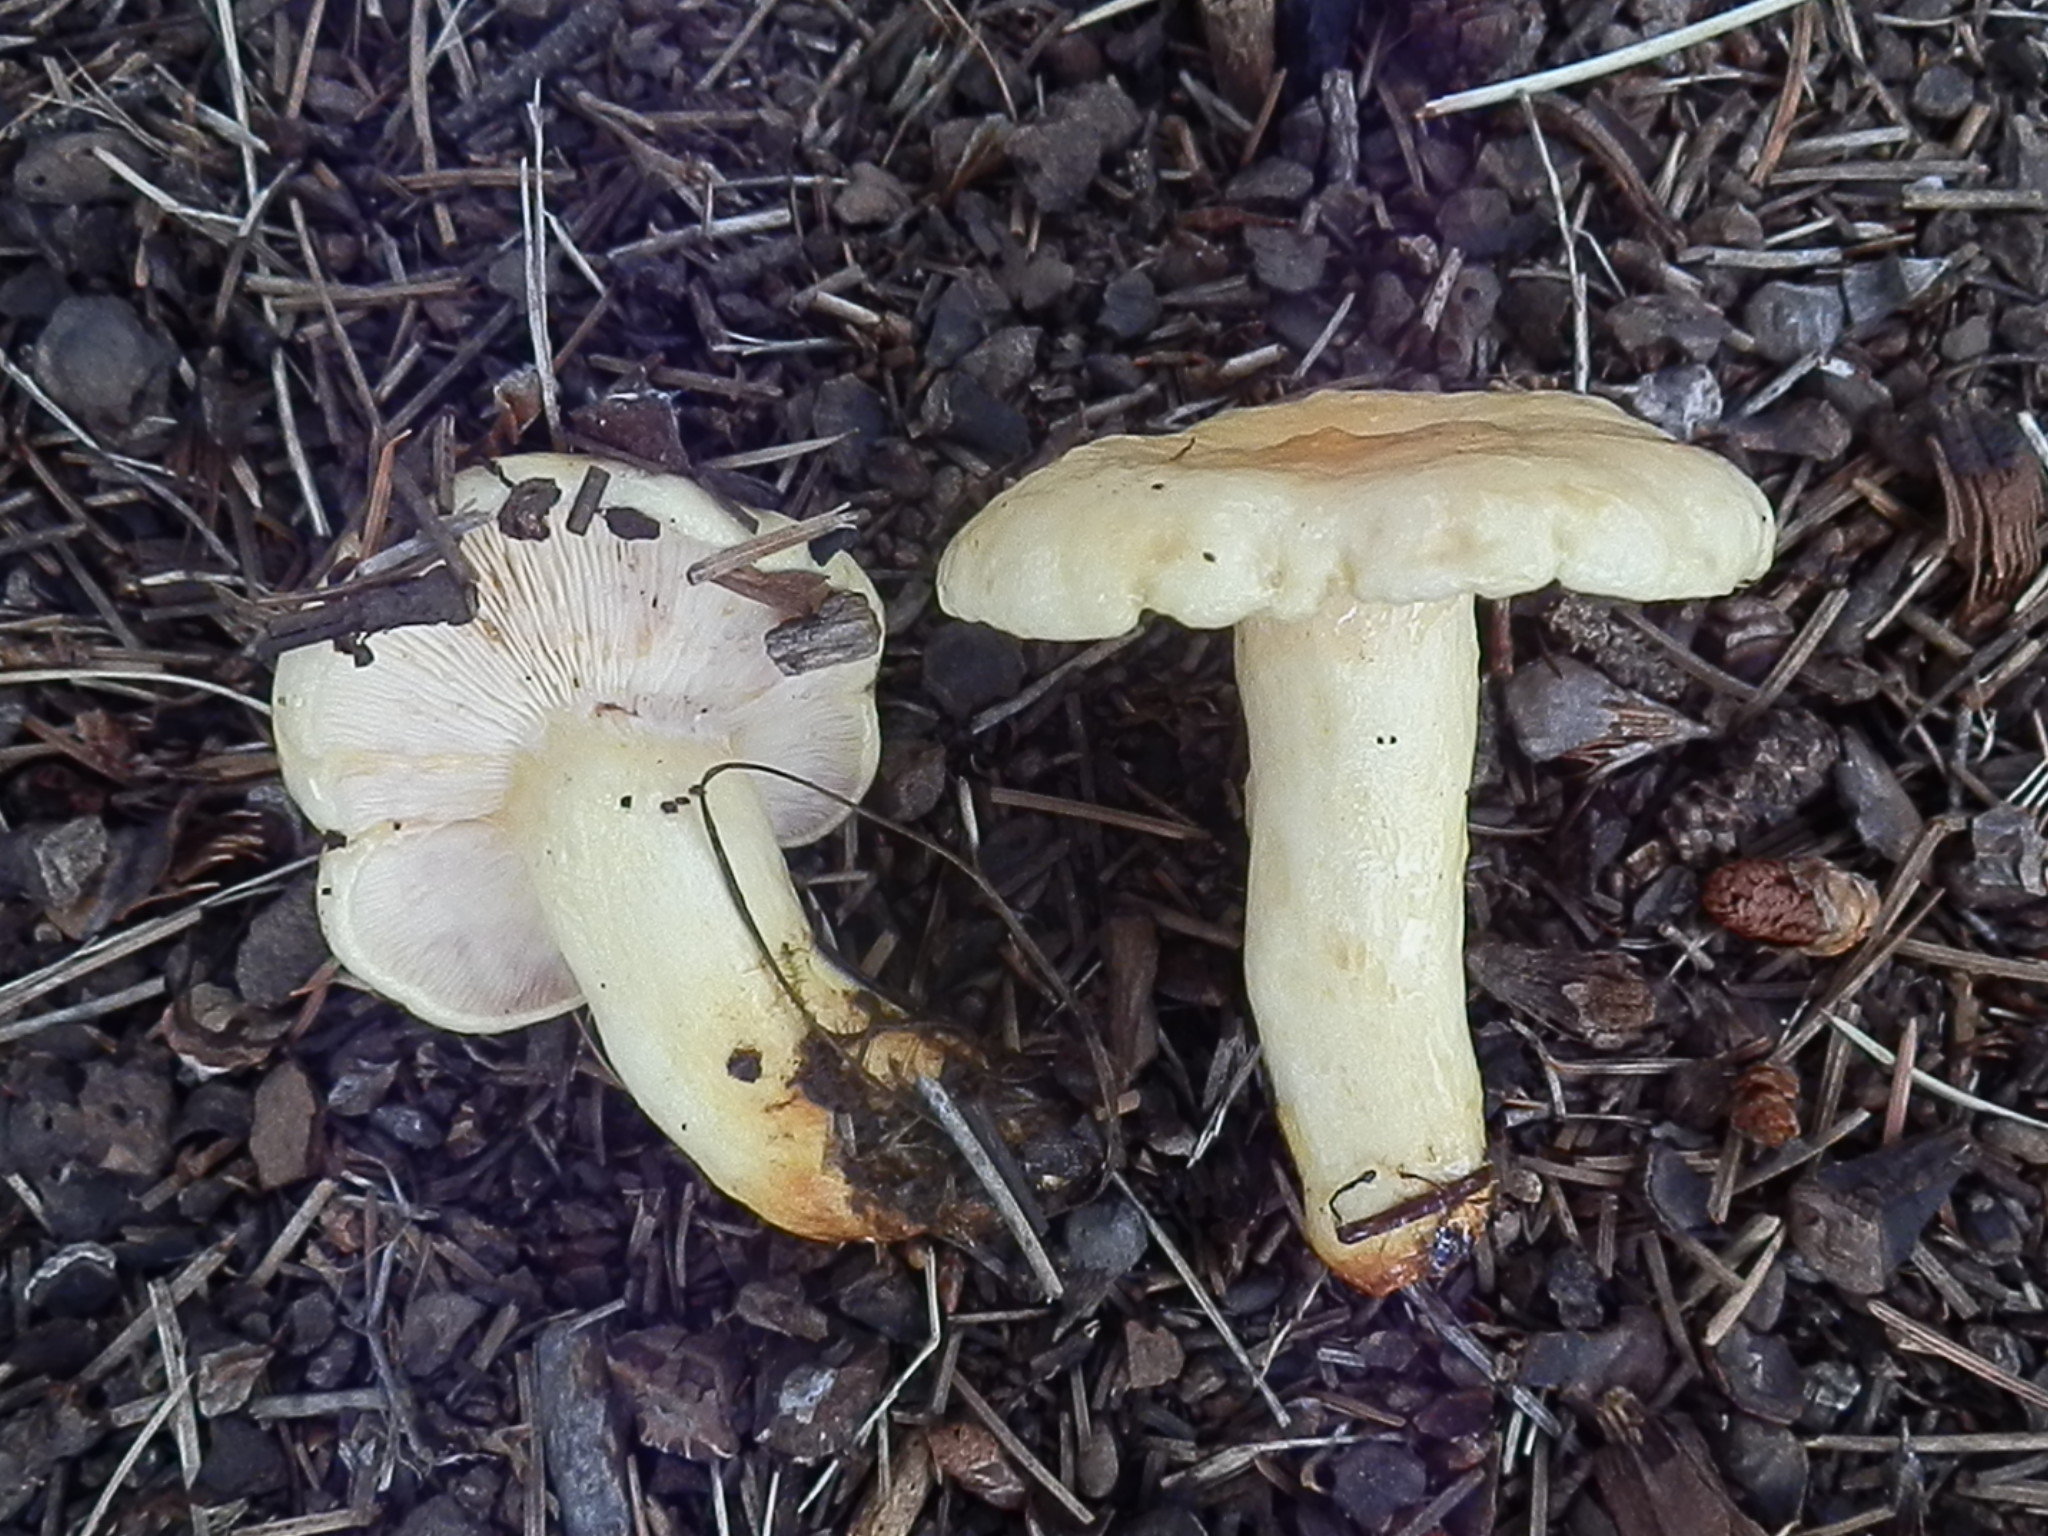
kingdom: Fungi
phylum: Basidiomycota
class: Agaricomycetes
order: Agaricales
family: Hygrophoraceae
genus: Hygrophorus
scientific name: Hygrophorus ligatus
